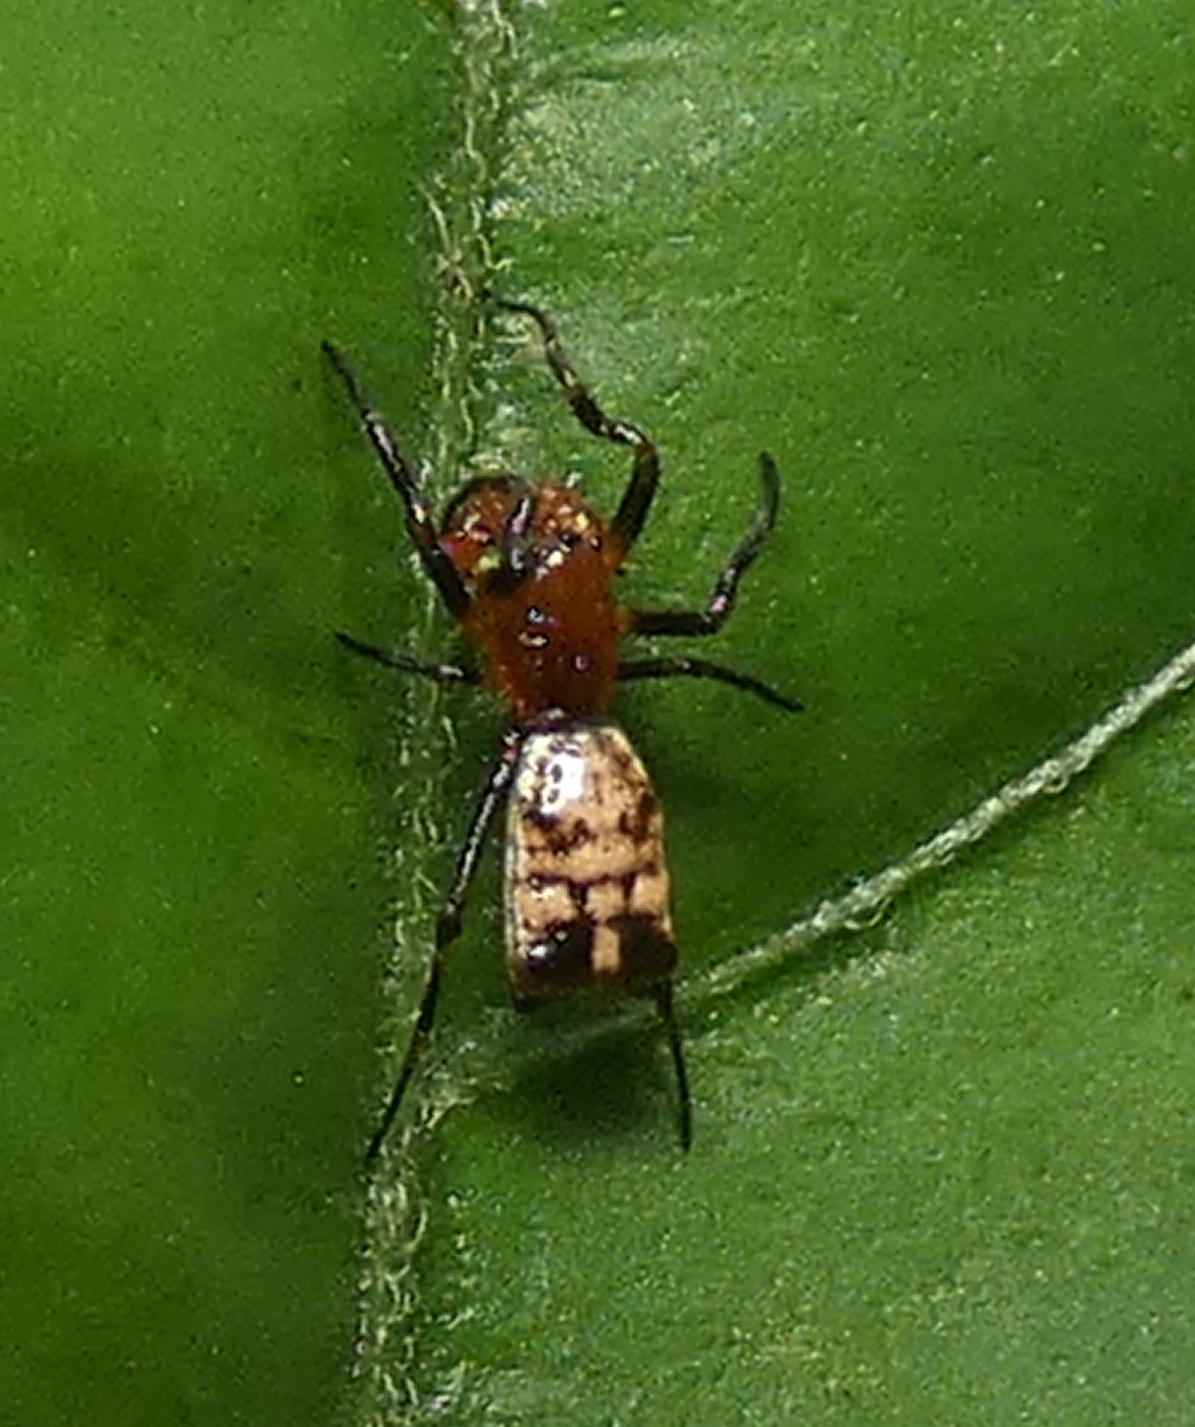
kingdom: Animalia
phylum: Arthropoda
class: Arachnida
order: Araneae
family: Araneidae
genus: Micrathena
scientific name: Micrathena picta
